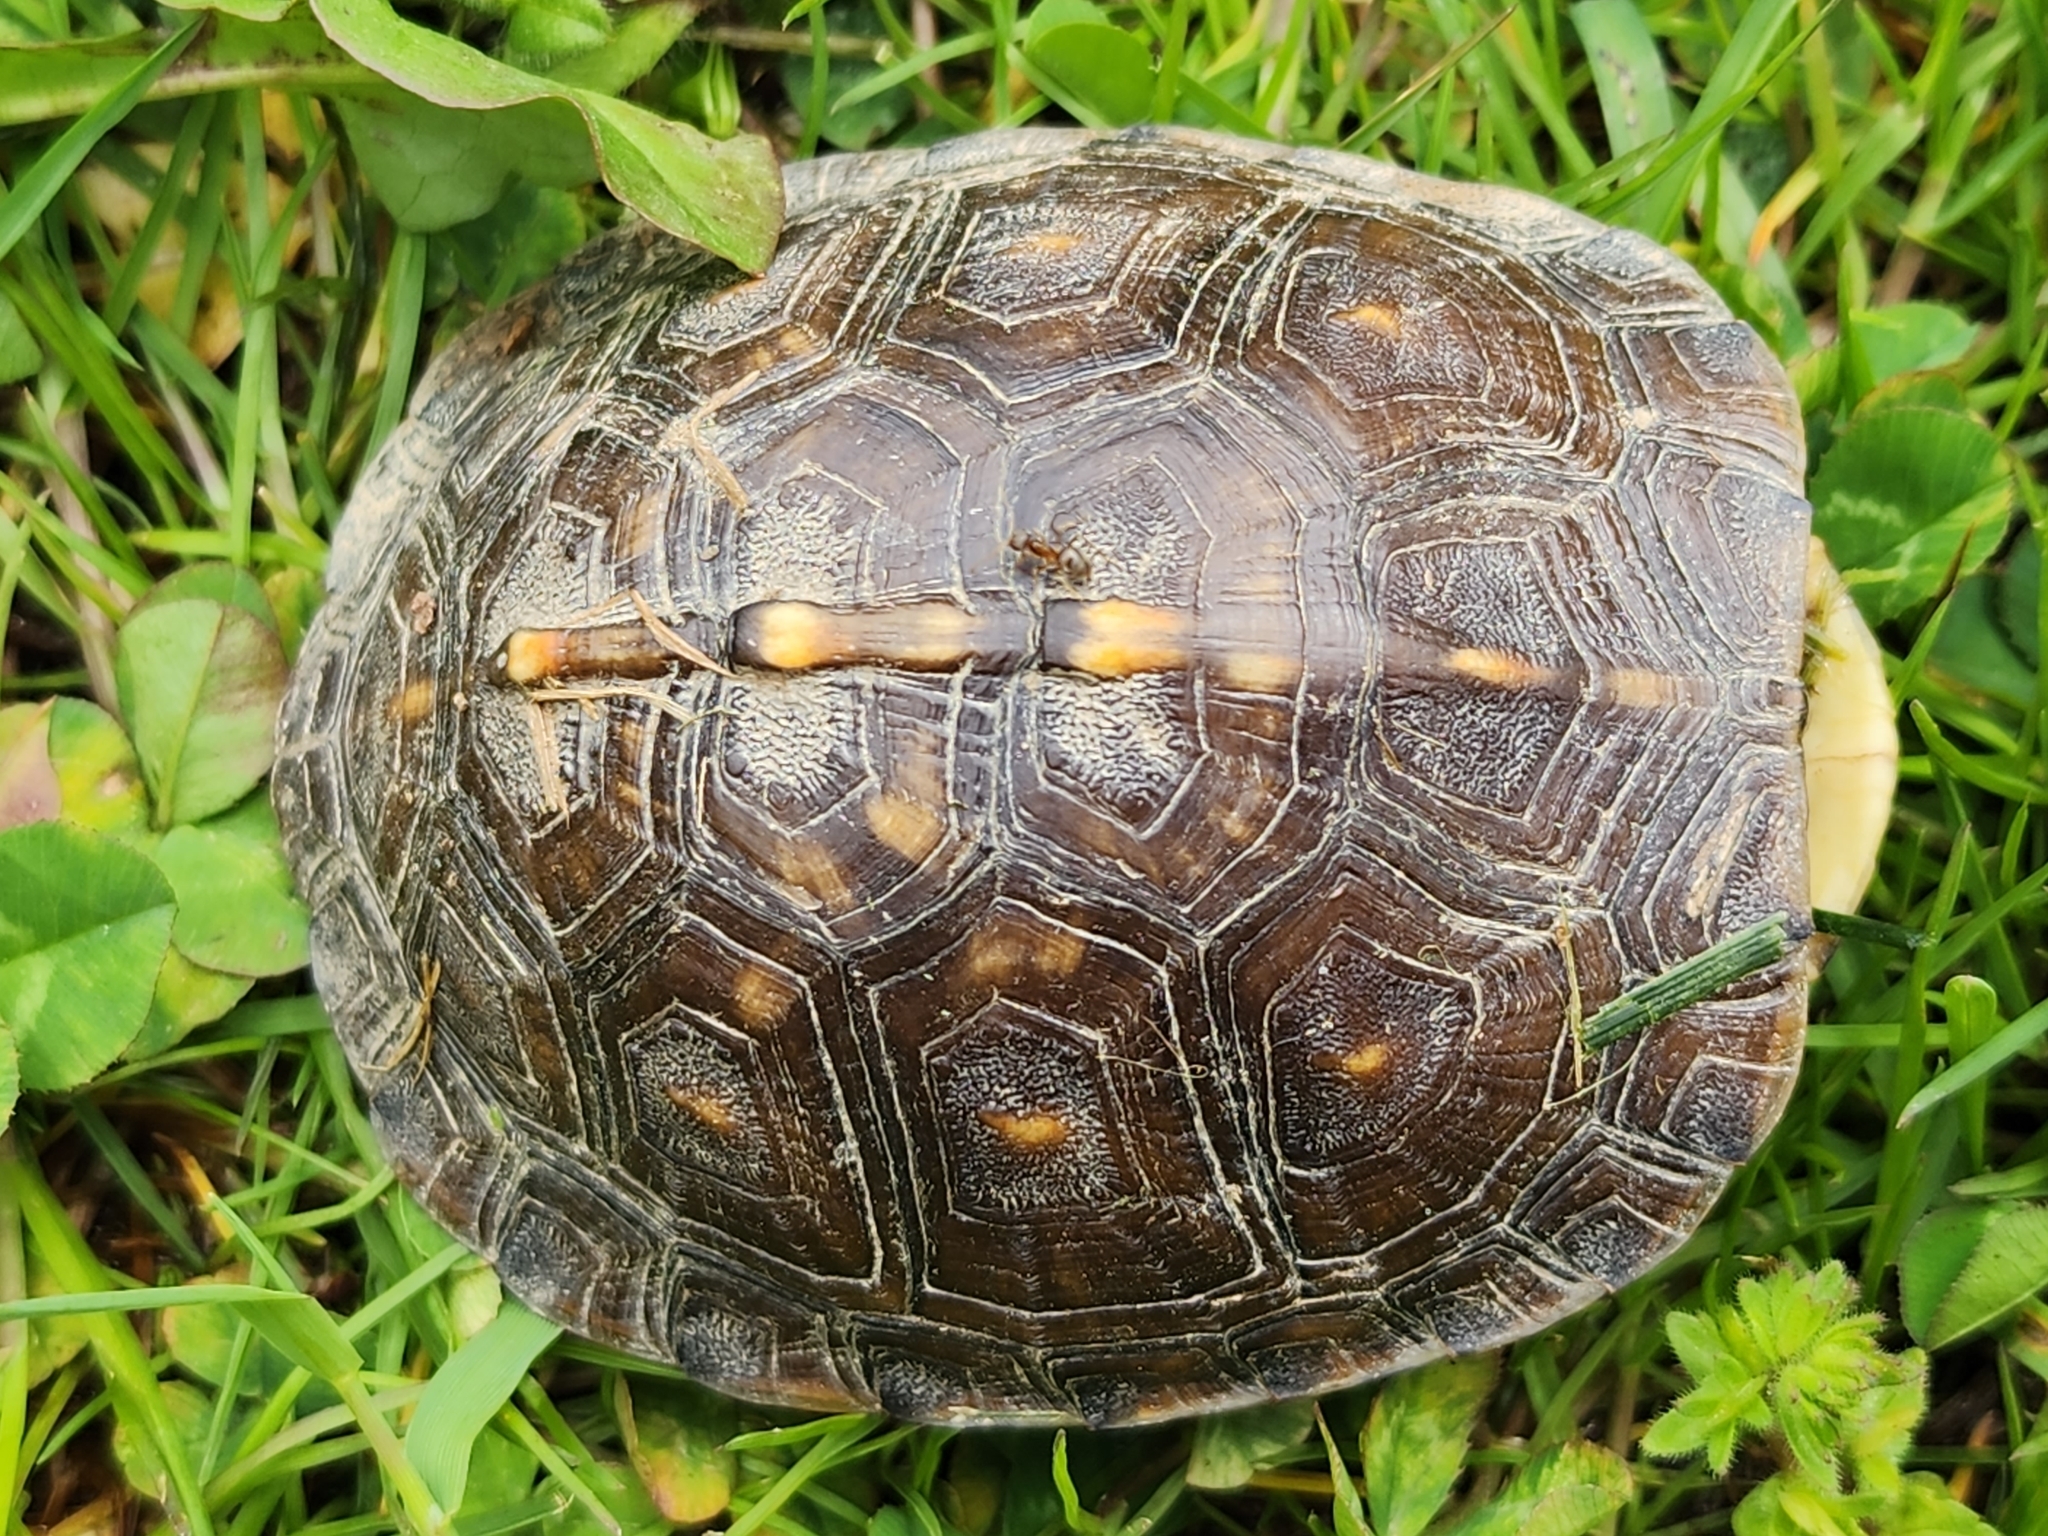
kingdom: Animalia
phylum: Chordata
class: Testudines
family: Emydidae
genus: Terrapene
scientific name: Terrapene carolina
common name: Common box turtle
